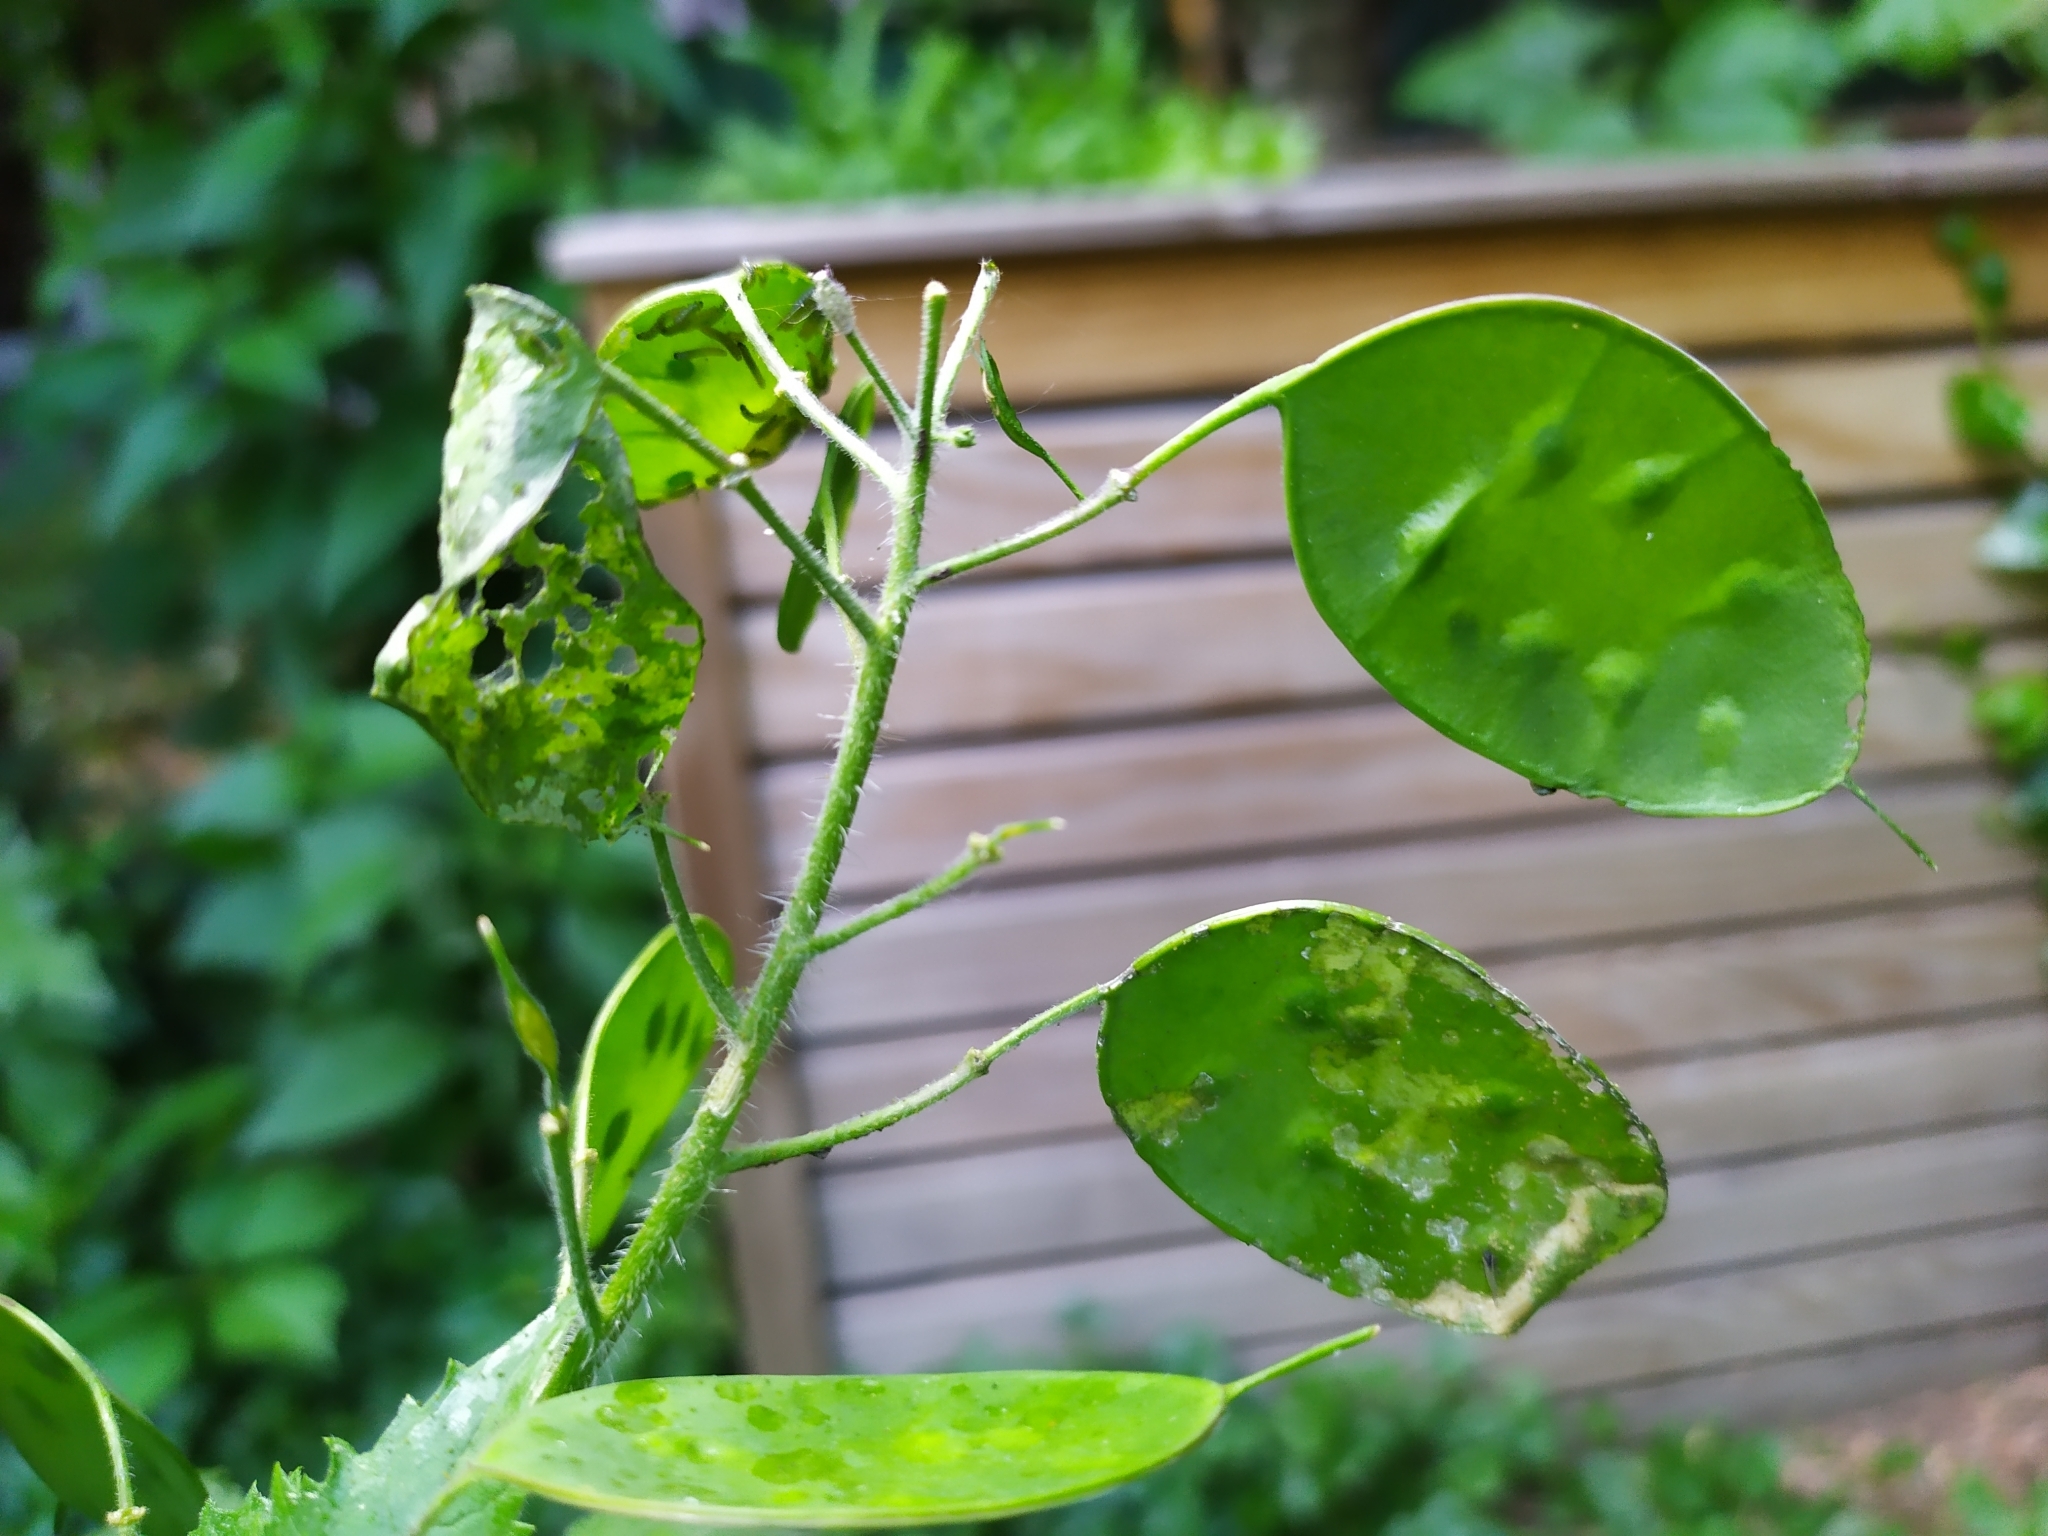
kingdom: Animalia
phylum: Arthropoda
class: Insecta
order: Lepidoptera
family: Pieridae
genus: Pieris
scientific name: Pieris brassicae
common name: Large white
